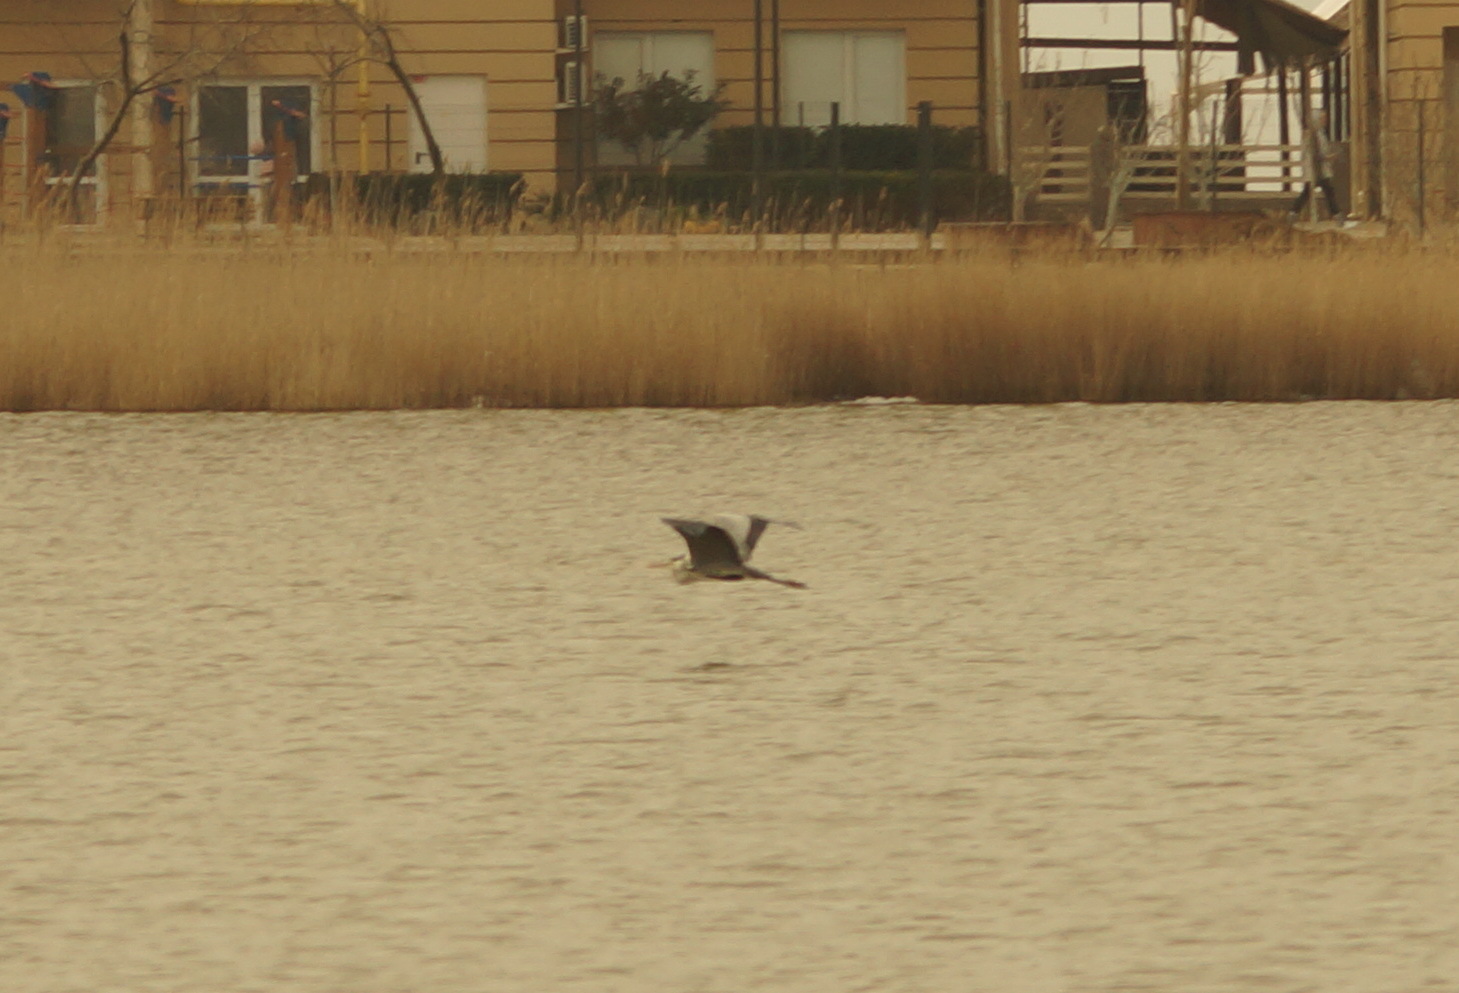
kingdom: Animalia
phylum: Chordata
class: Aves
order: Pelecaniformes
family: Ardeidae
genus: Ardea
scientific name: Ardea cinerea
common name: Grey heron
